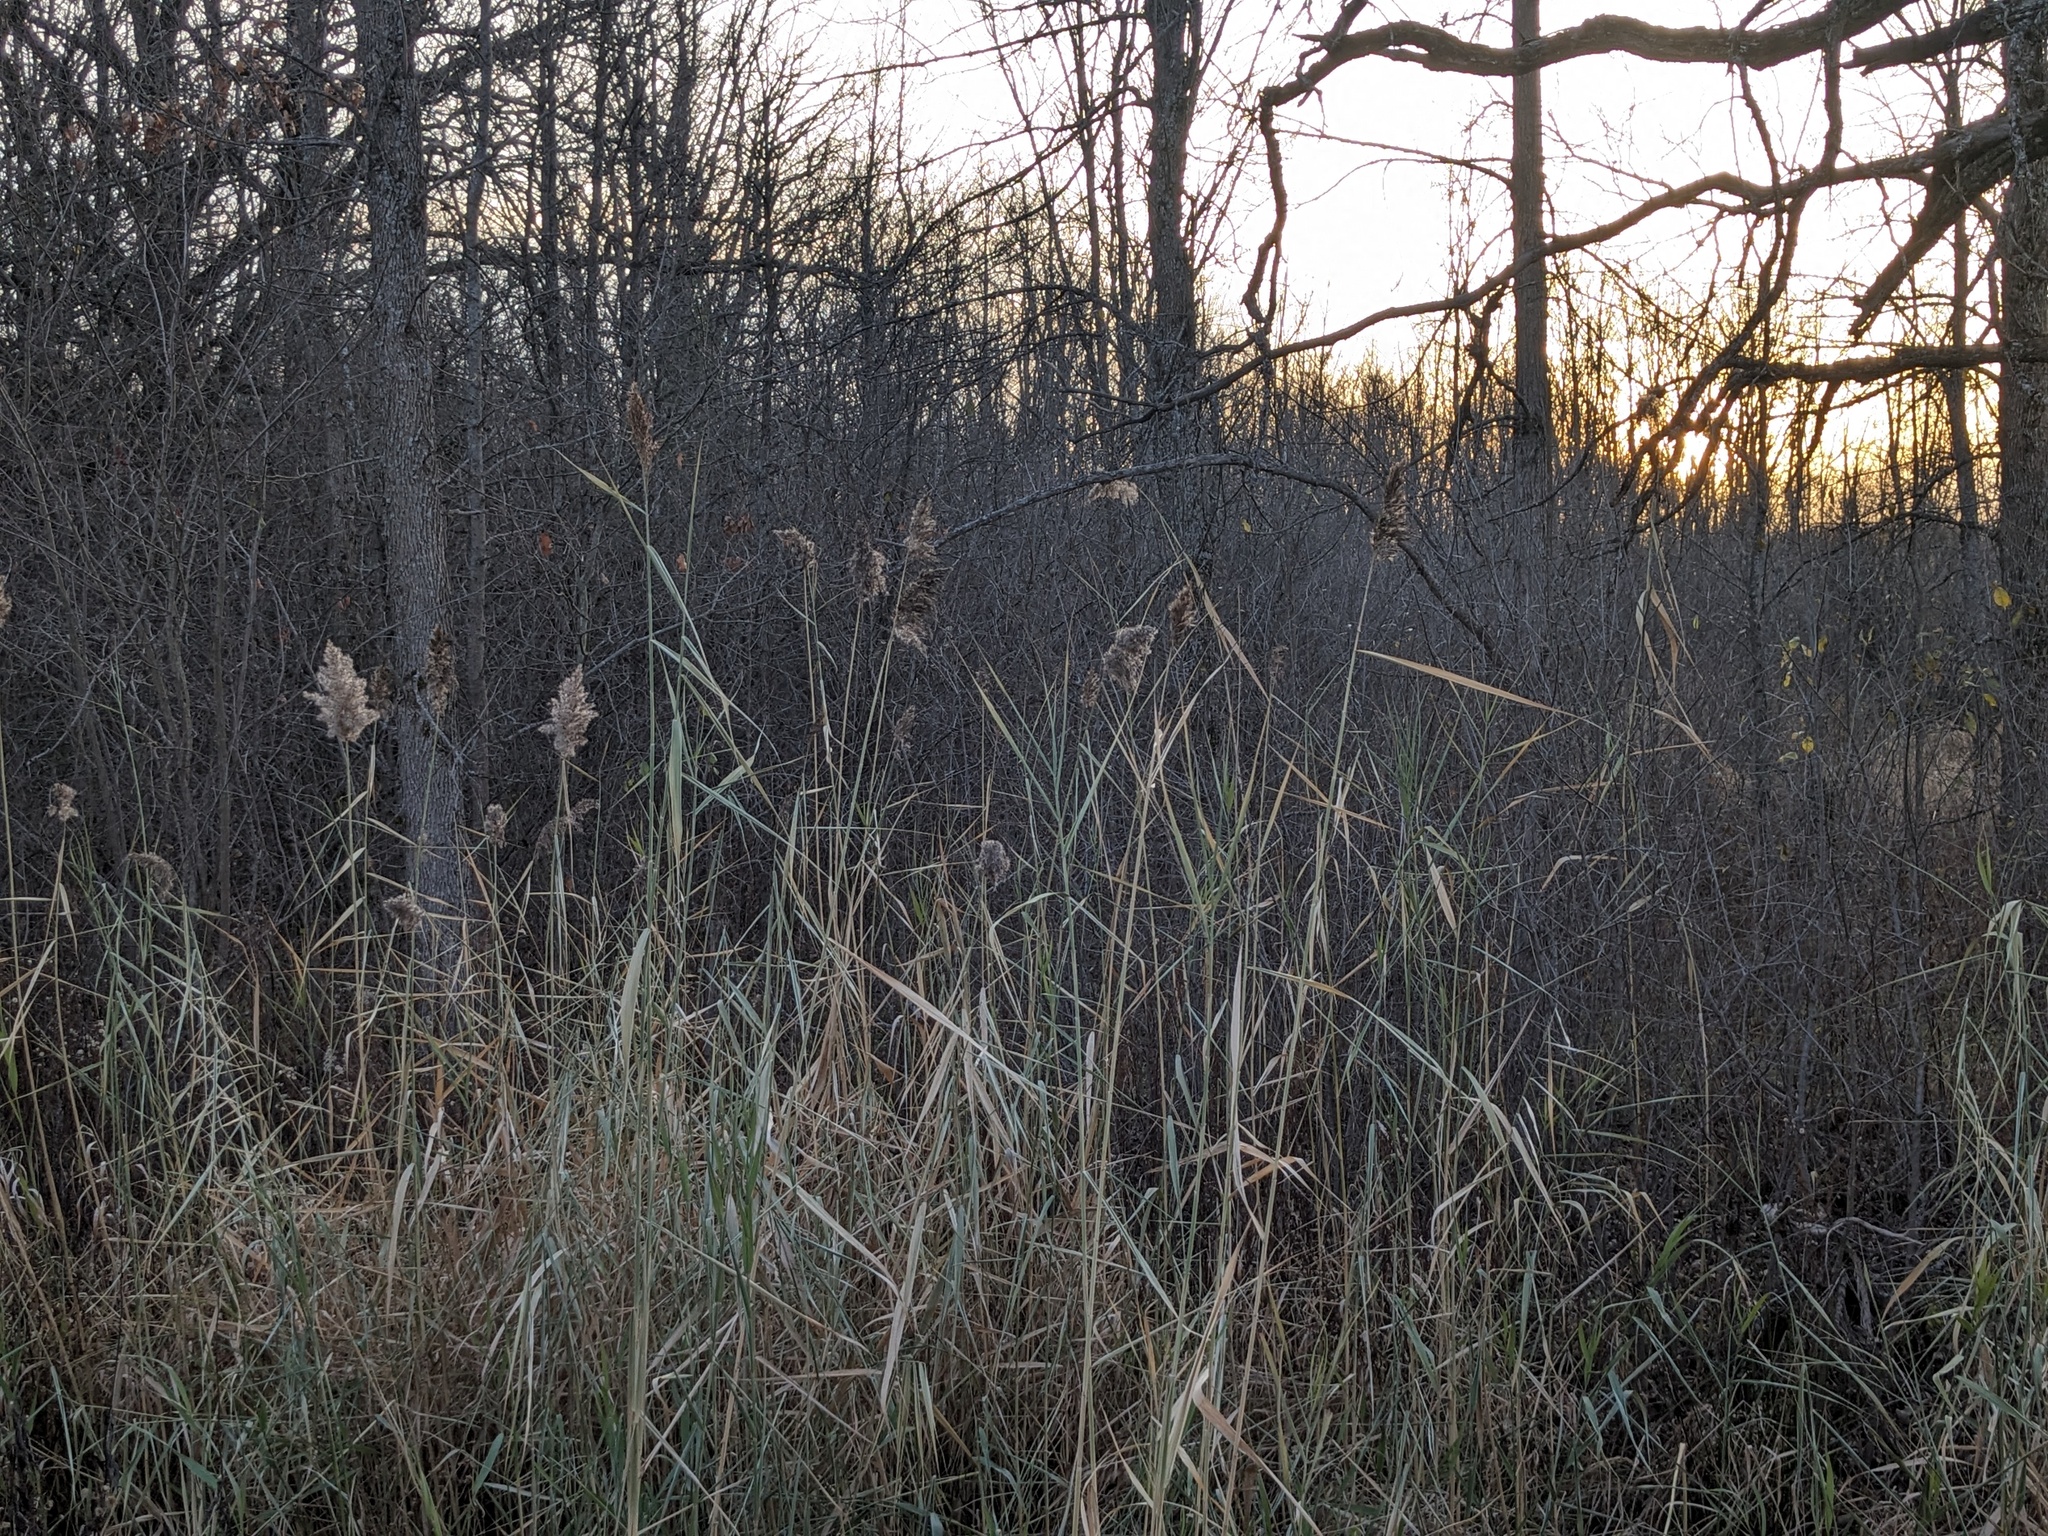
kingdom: Plantae
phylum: Tracheophyta
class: Liliopsida
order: Poales
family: Poaceae
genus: Phragmites
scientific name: Phragmites australis
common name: Common reed
